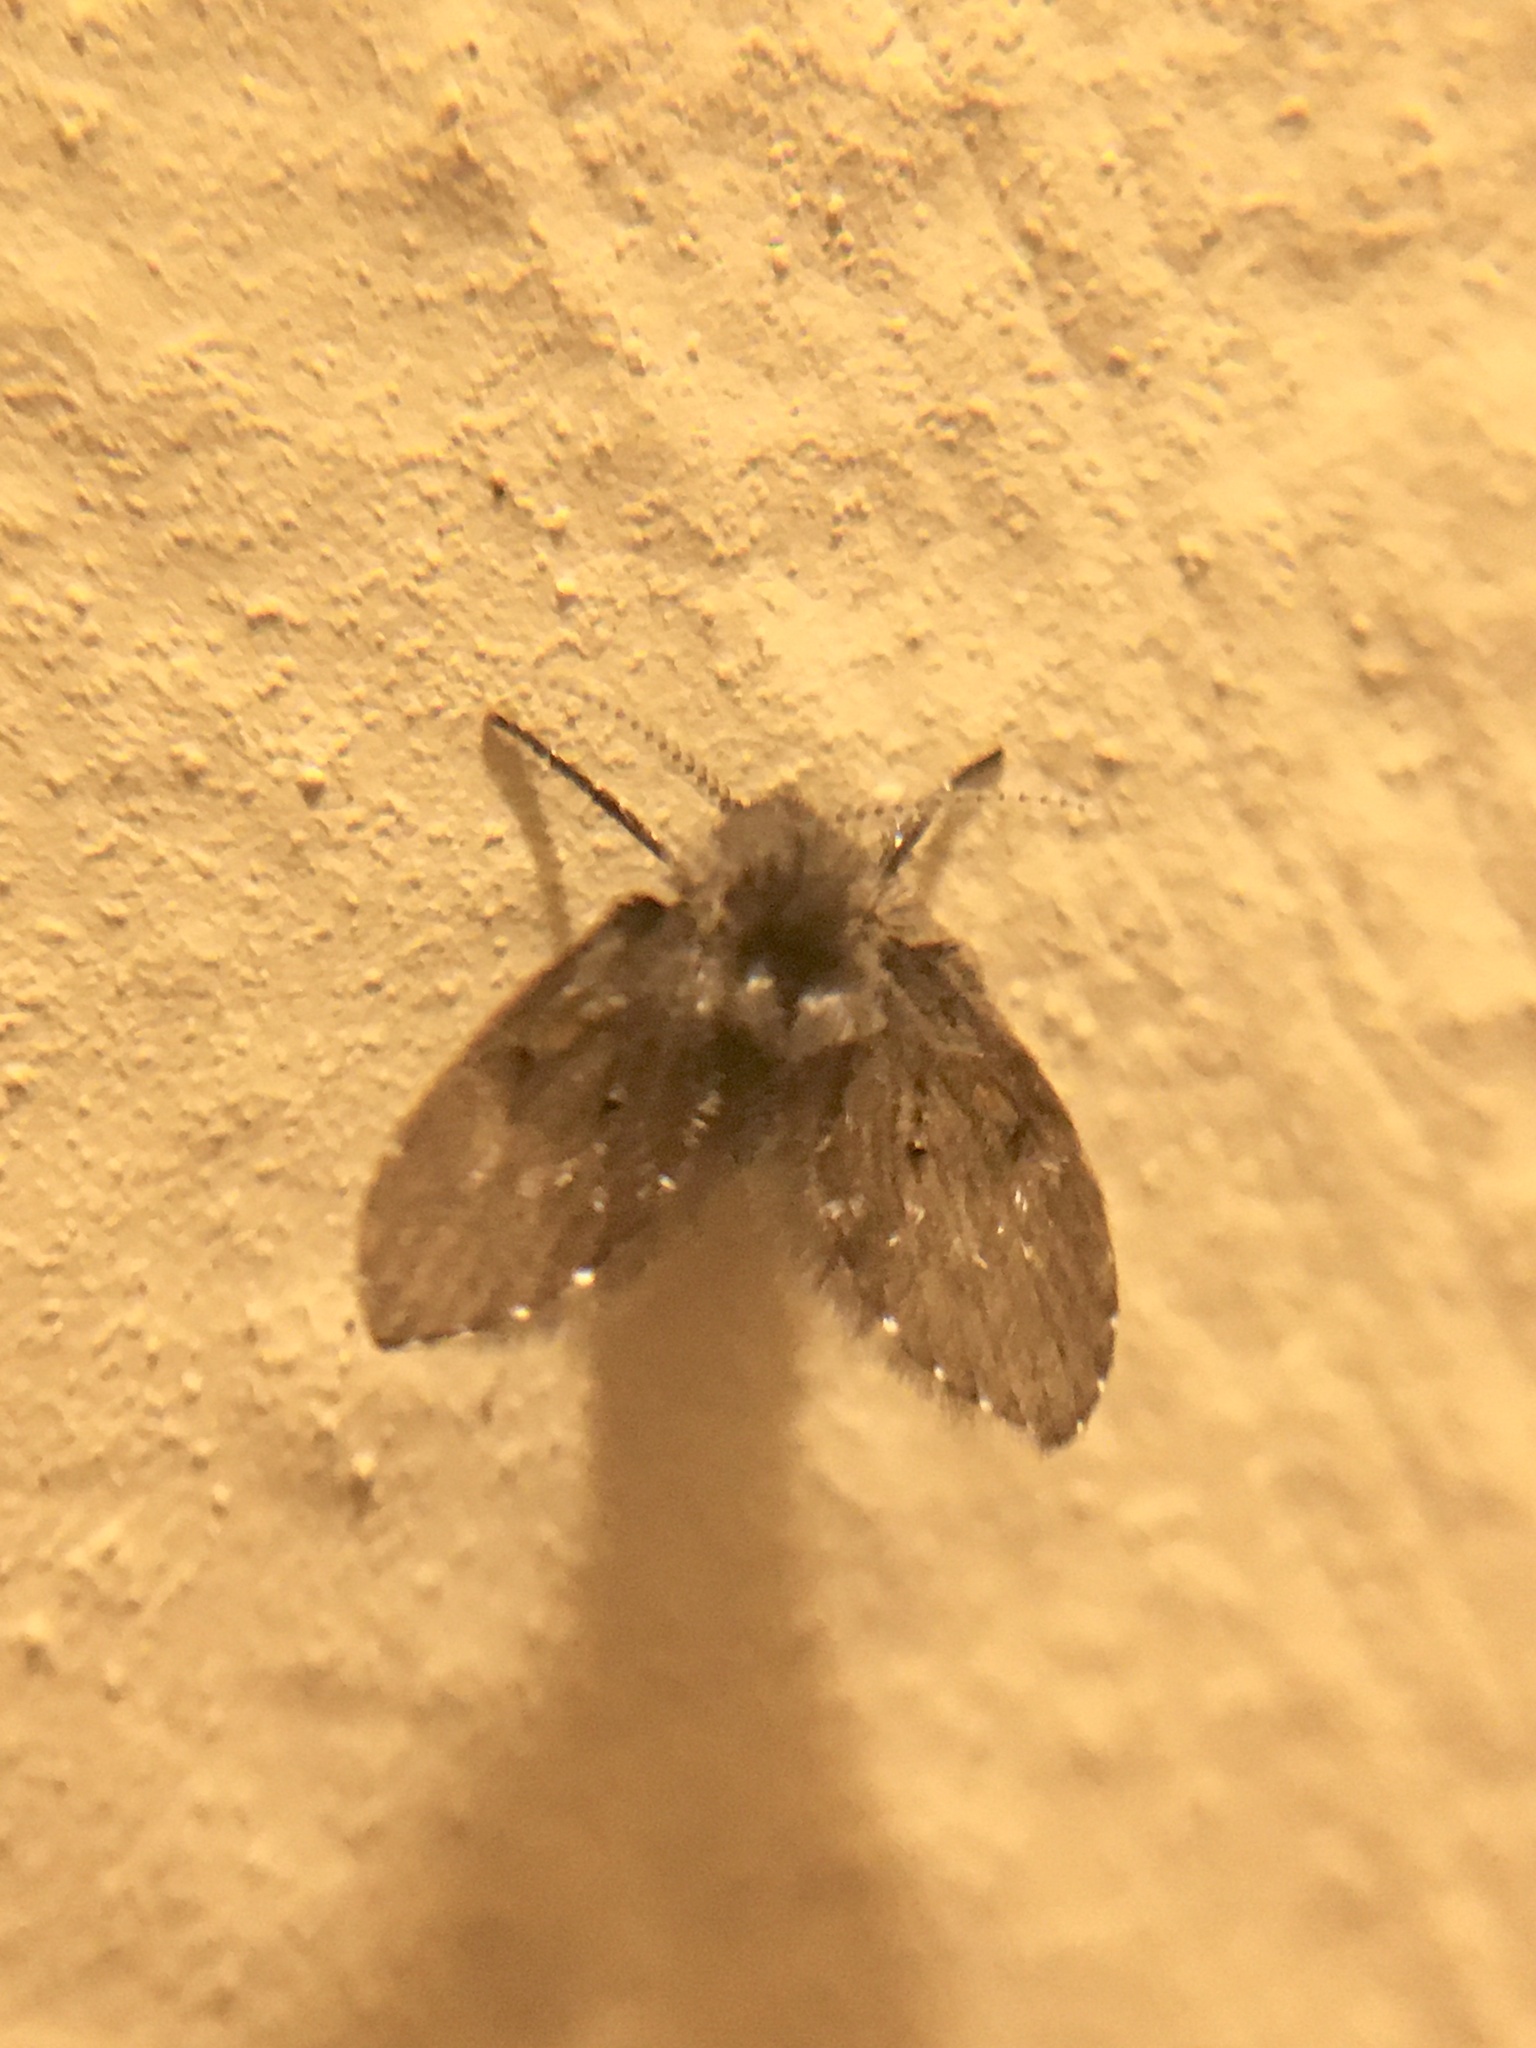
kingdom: Animalia
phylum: Arthropoda
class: Insecta
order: Diptera
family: Psychodidae
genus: Clogmia
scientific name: Clogmia albipunctatus
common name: White-spotted moth fly
